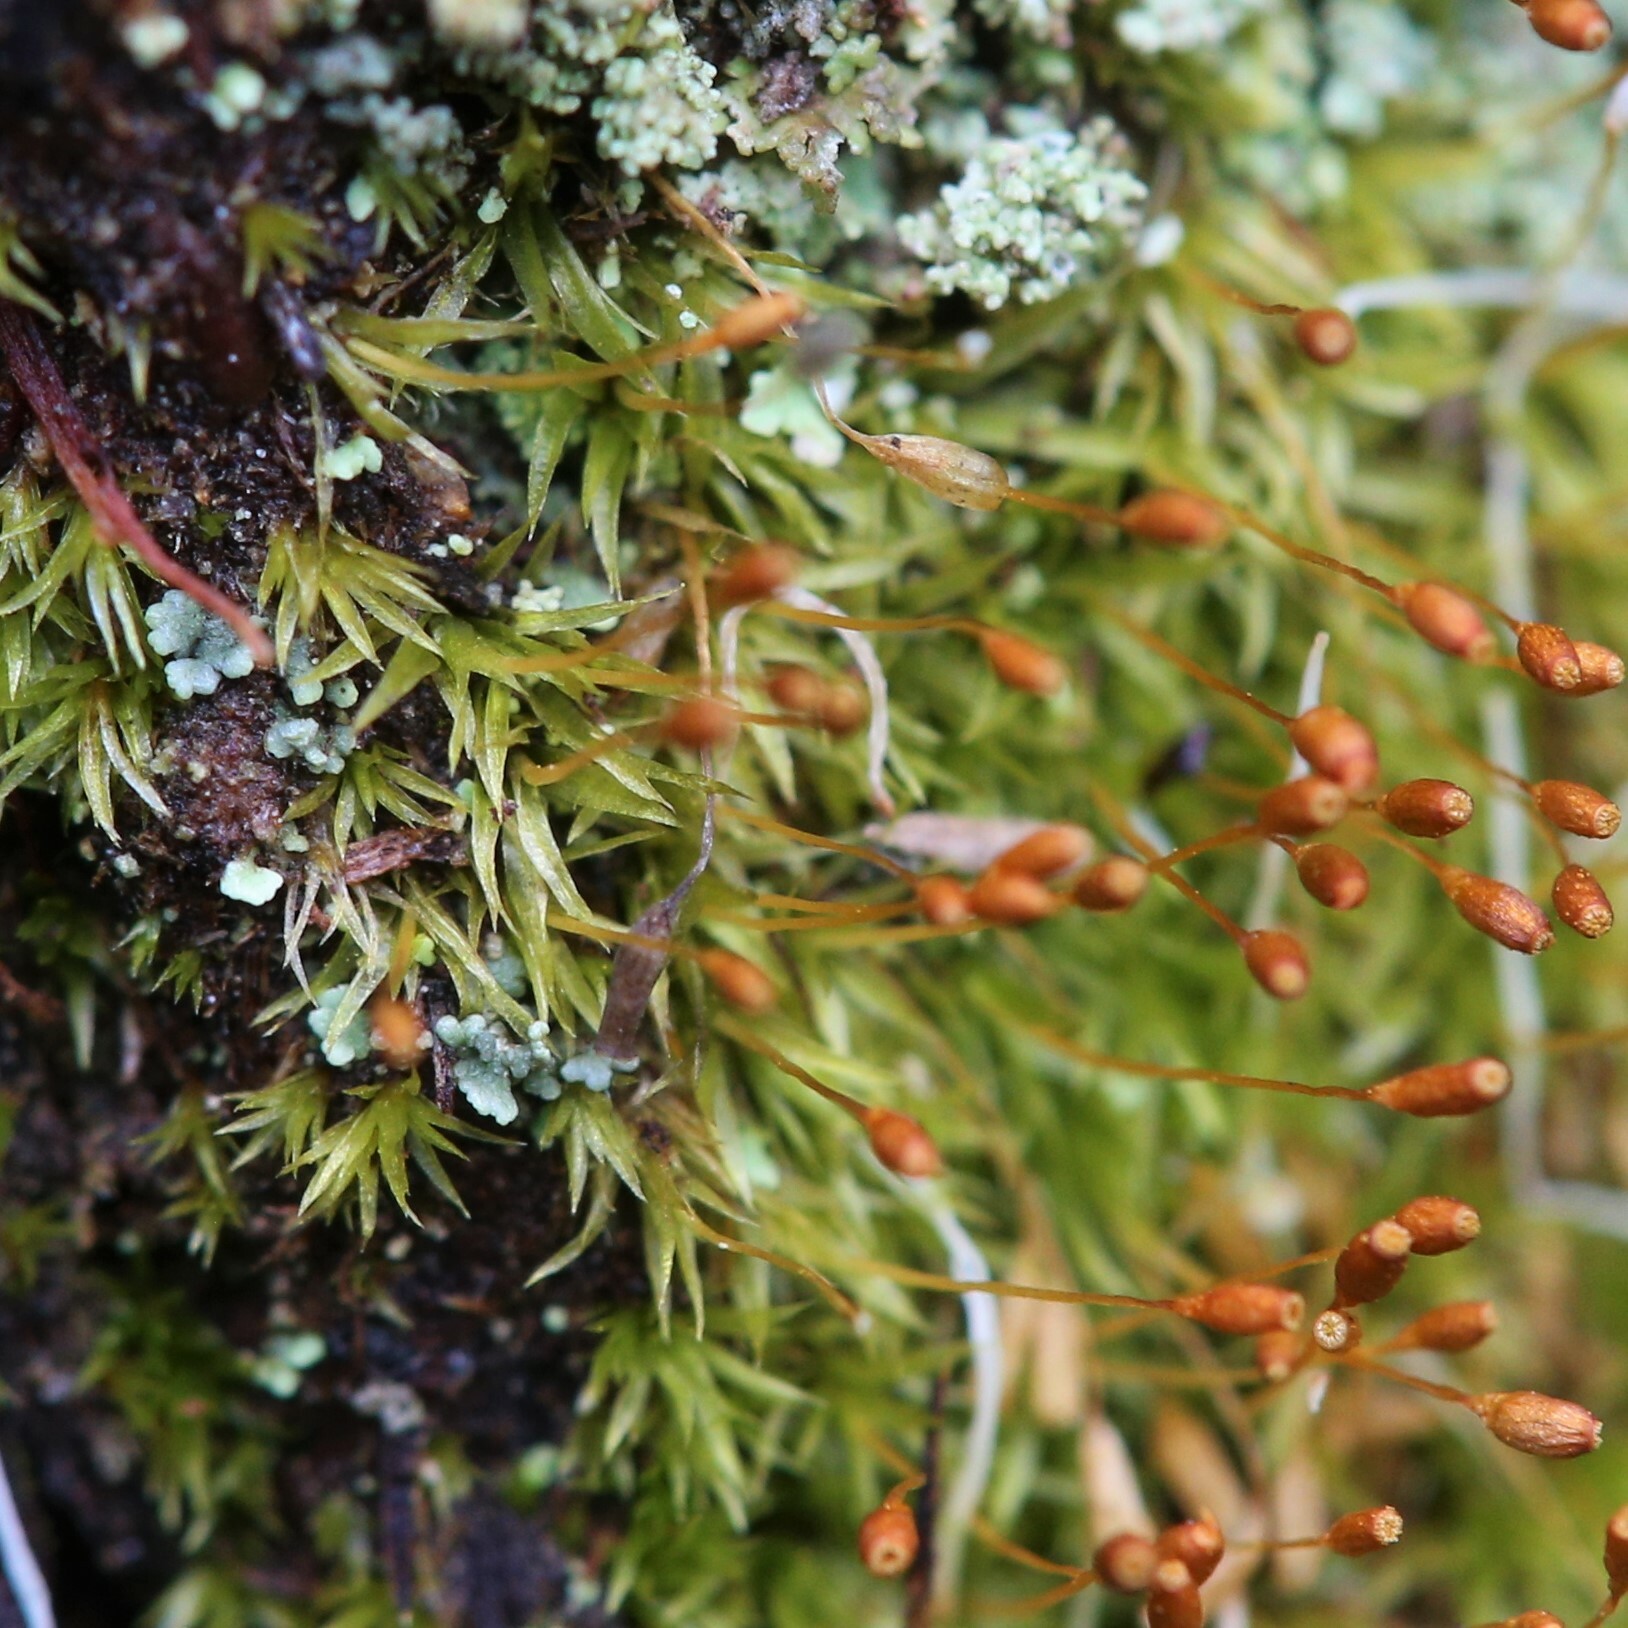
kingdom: Plantae
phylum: Bryophyta
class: Bryopsida
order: Orthodontiales
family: Orthodontiaceae
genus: Orthodontium
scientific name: Orthodontium lineare
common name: Cape thread-moss
